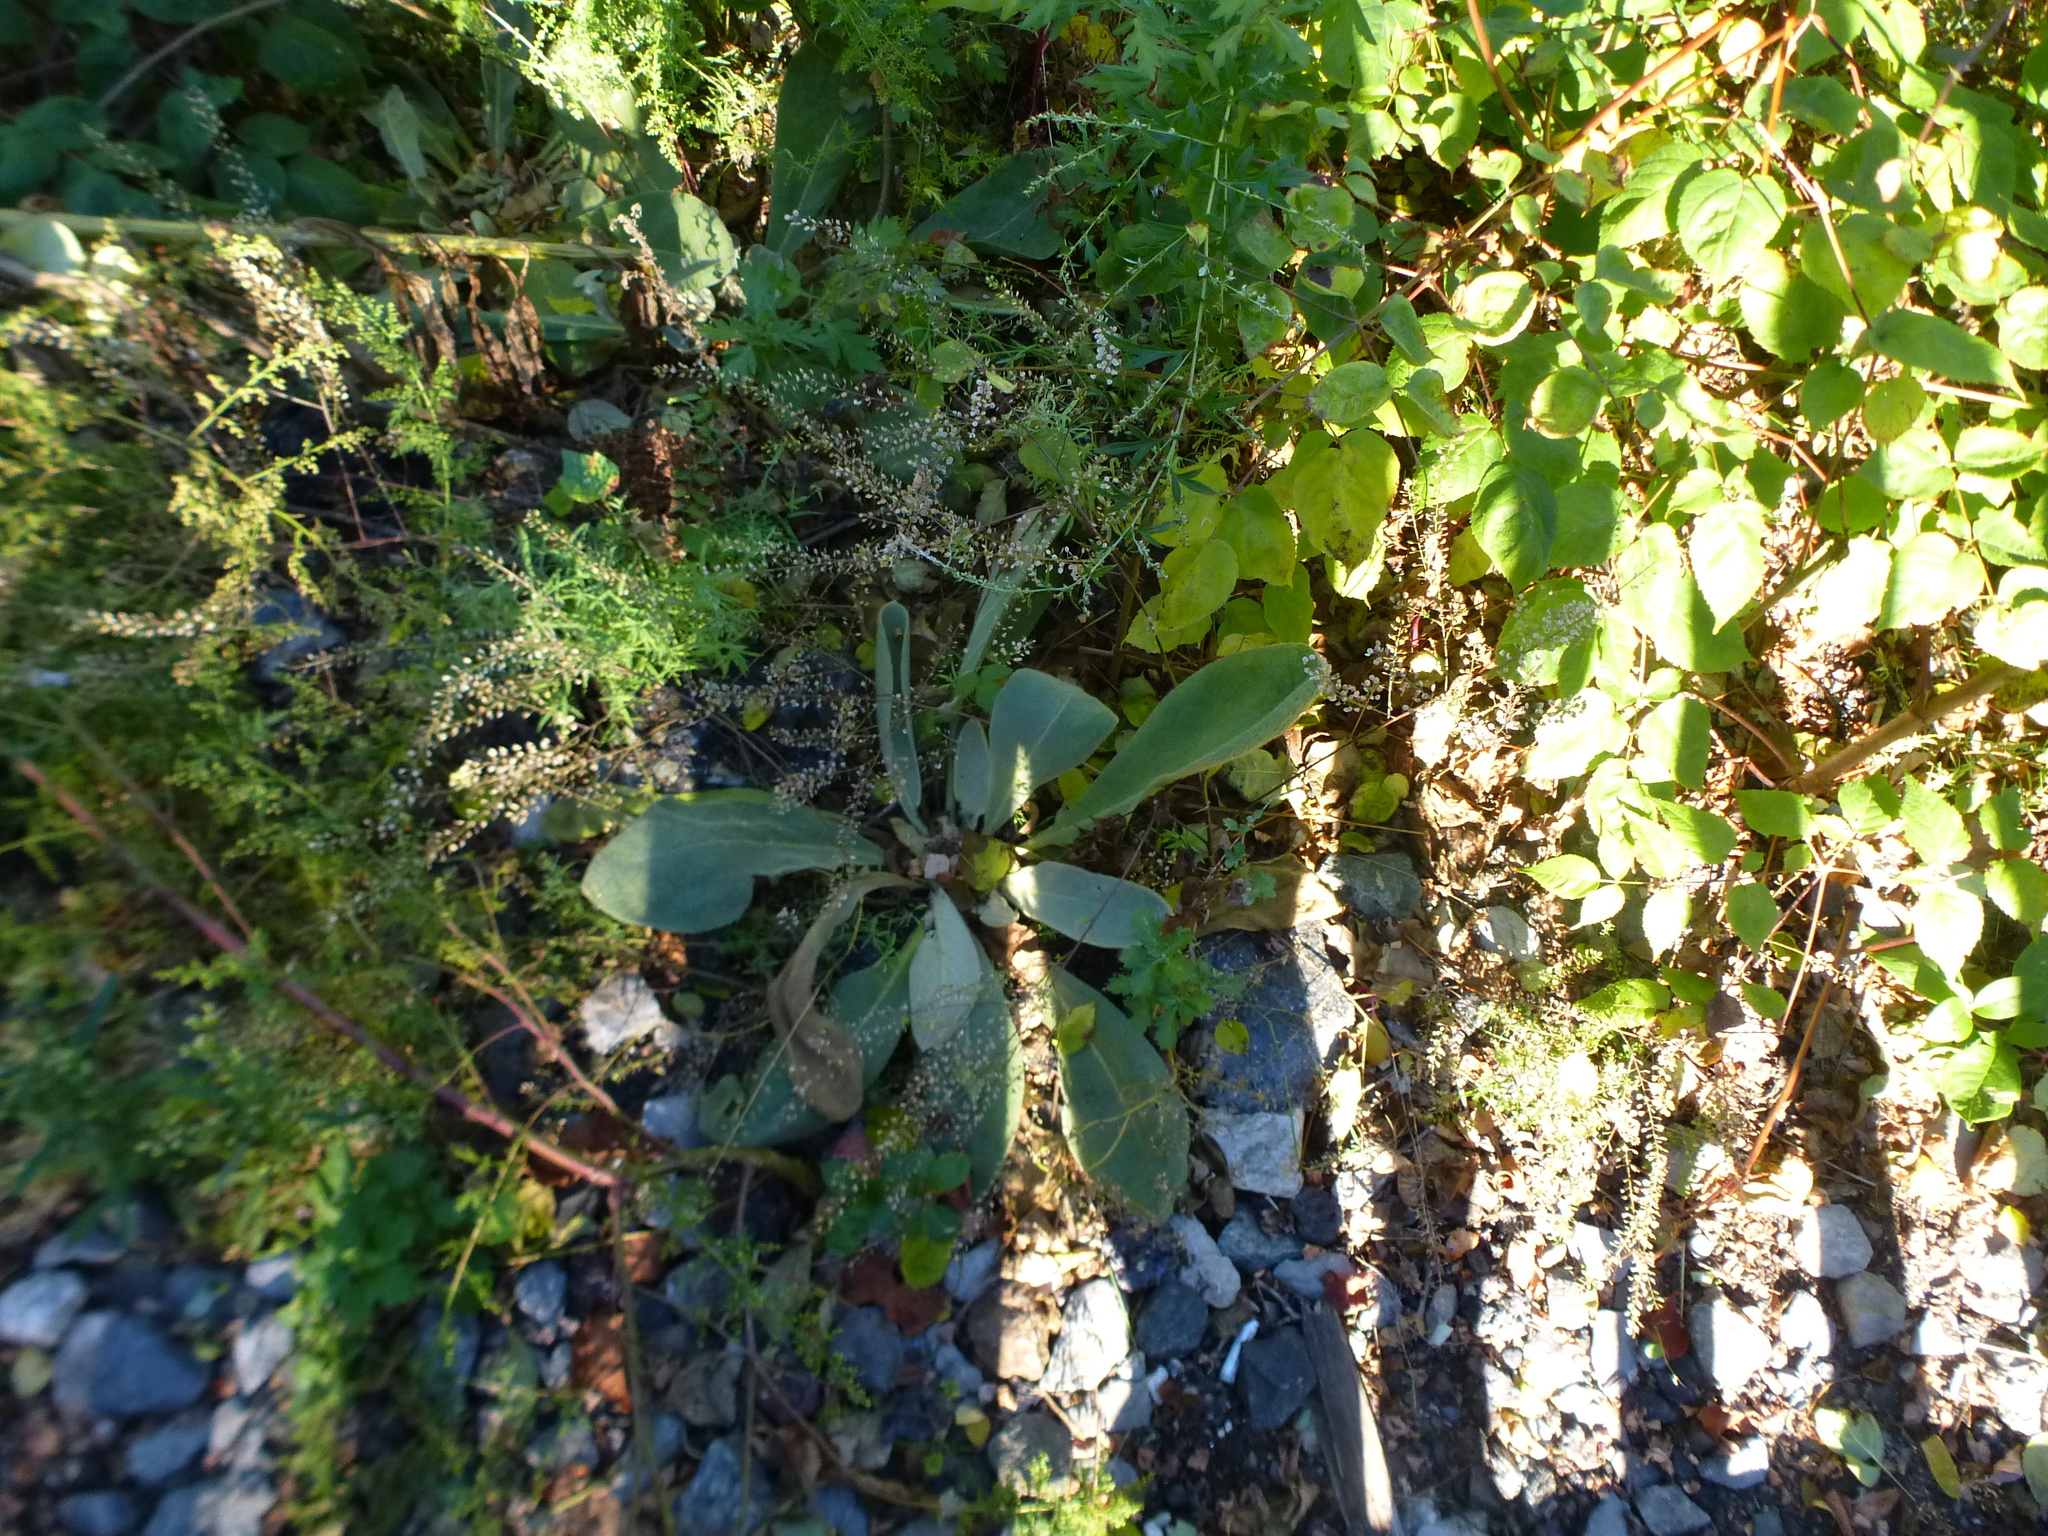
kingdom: Plantae
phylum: Tracheophyta
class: Magnoliopsida
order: Lamiales
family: Scrophulariaceae
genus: Verbascum
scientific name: Verbascum thapsus
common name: Common mullein
